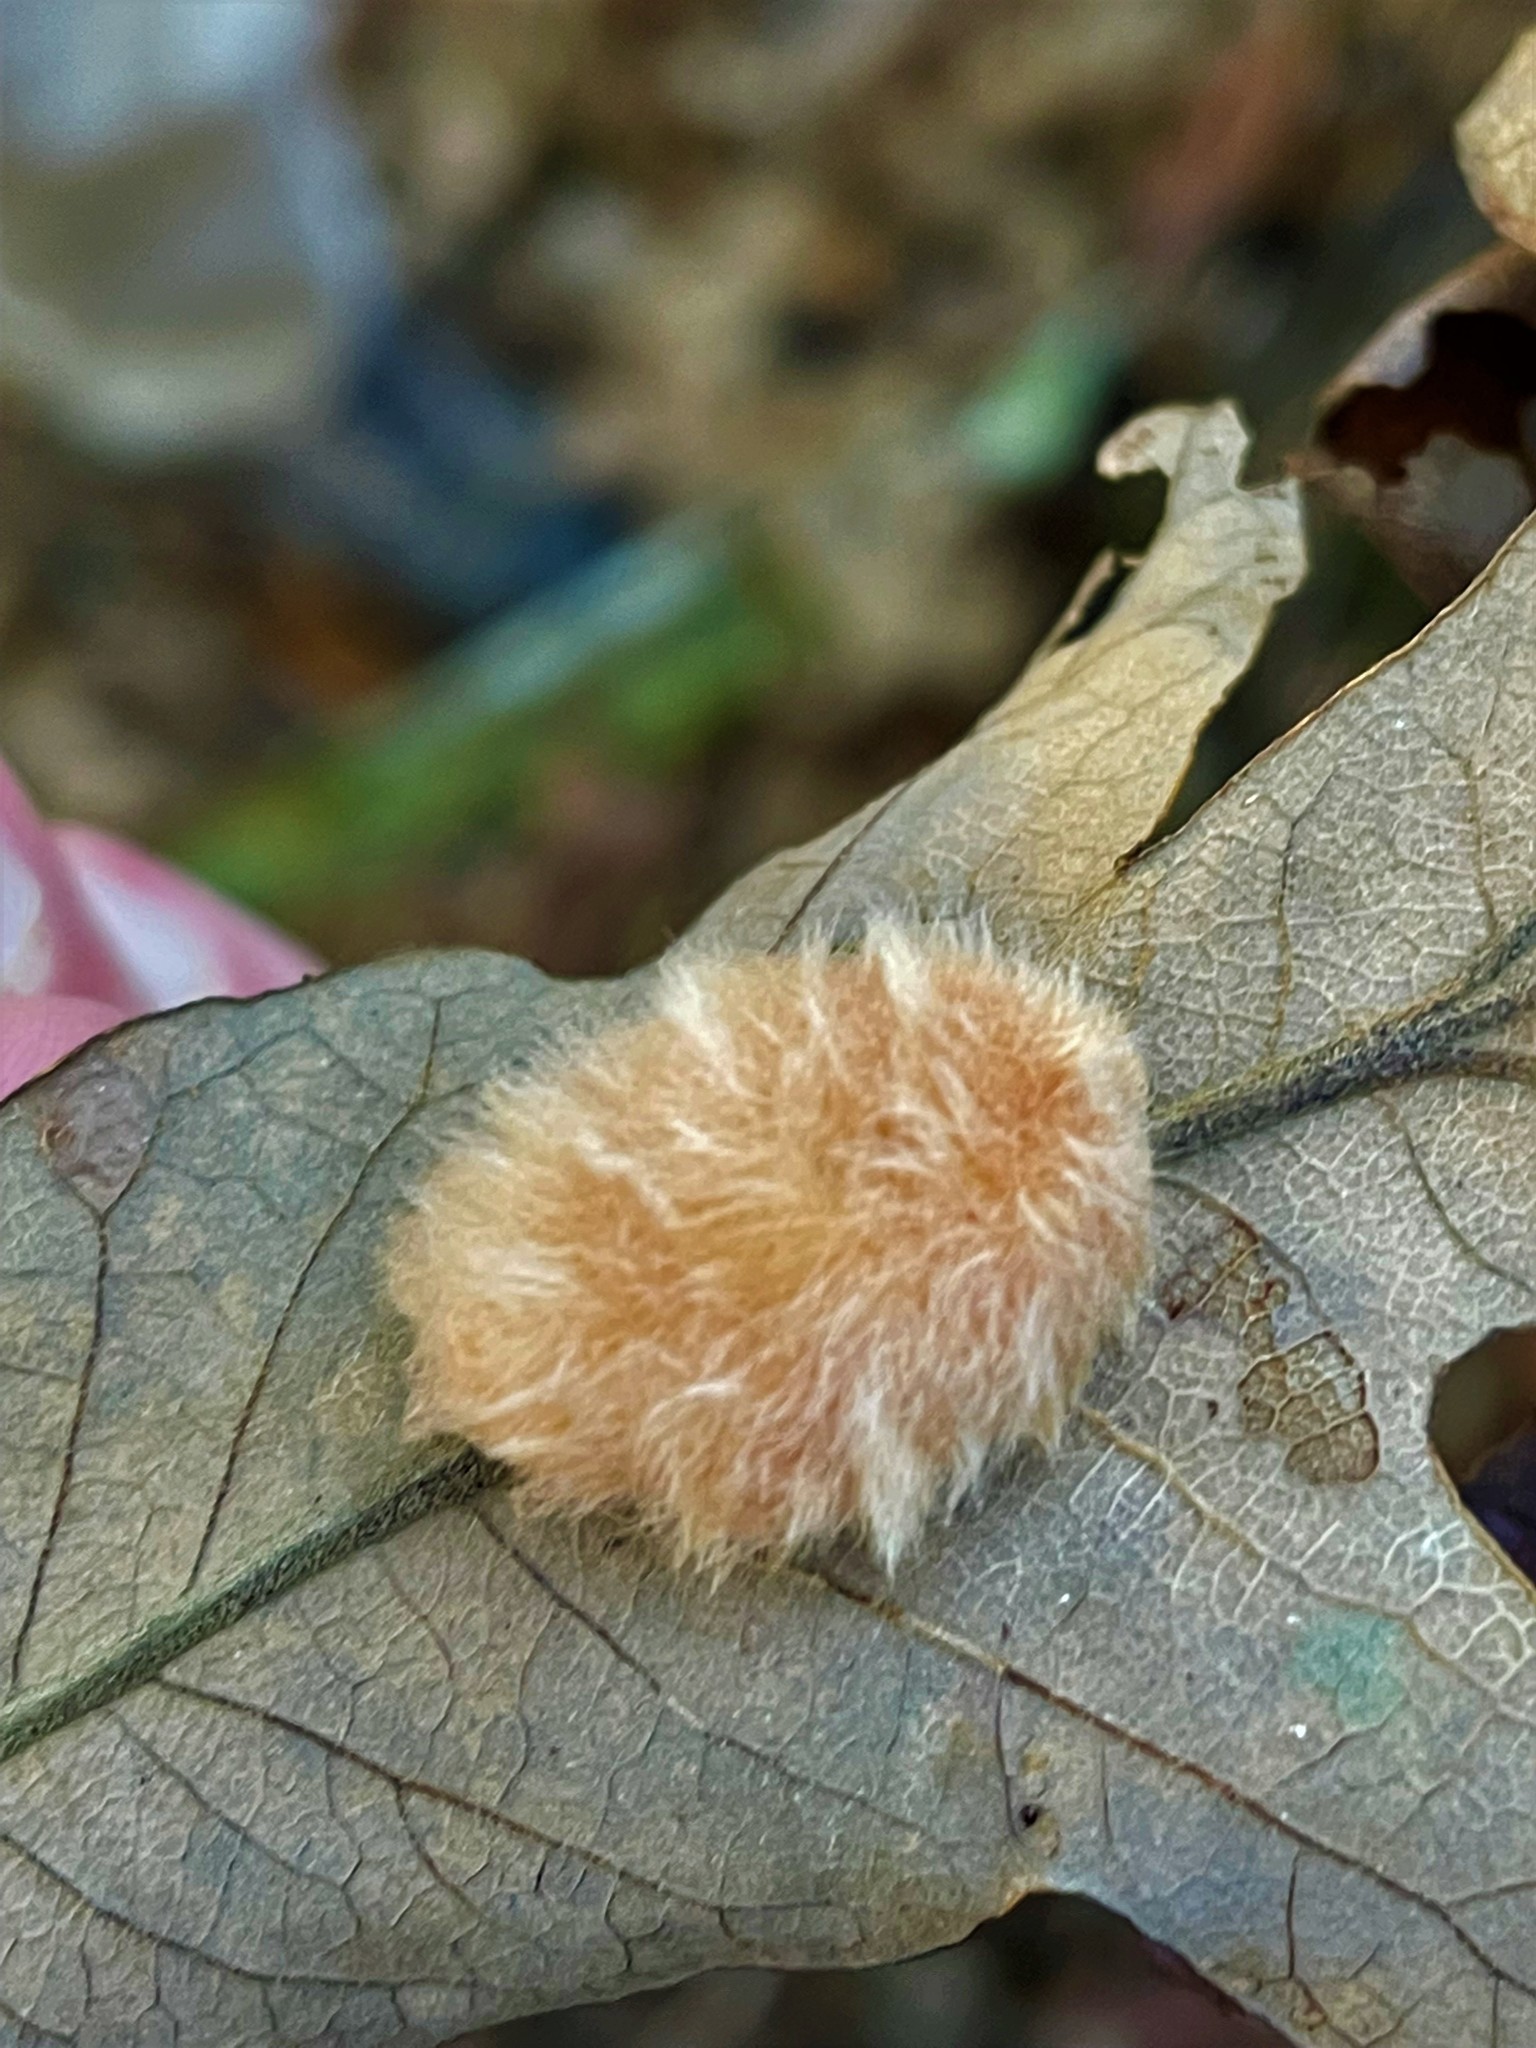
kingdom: Animalia
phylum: Arthropoda
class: Insecta
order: Hymenoptera
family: Cynipidae
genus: Andricus
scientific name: Andricus Druon pattoni
